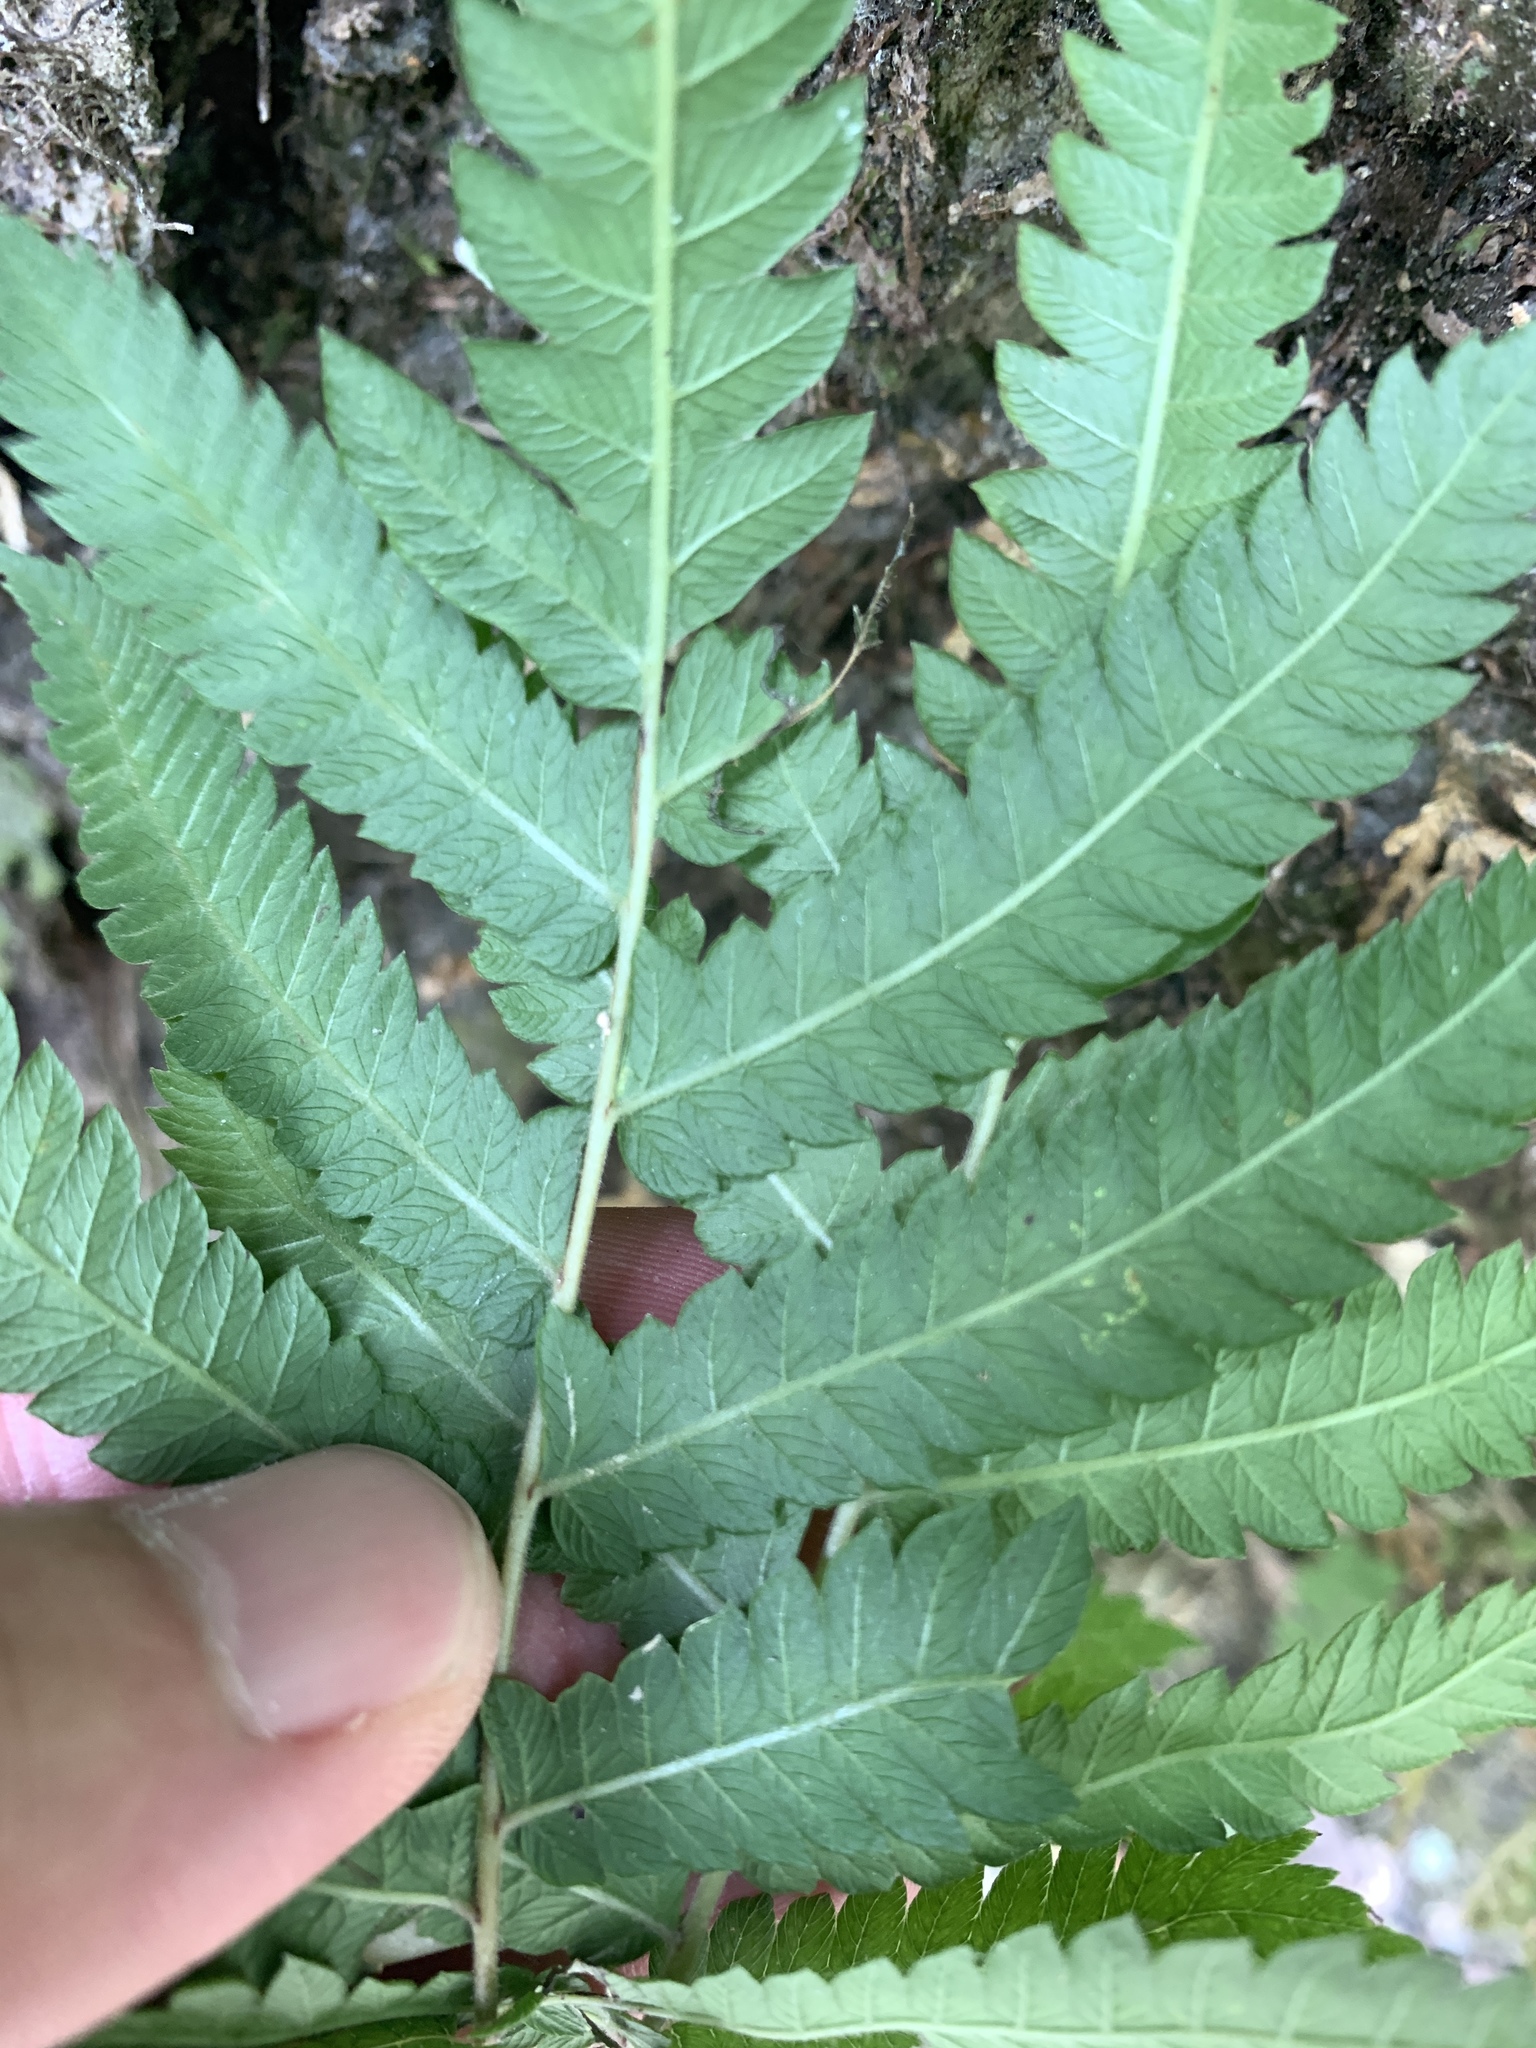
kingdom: Plantae
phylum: Tracheophyta
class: Polypodiopsida
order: Polypodiales
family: Thelypteridaceae
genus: Christella
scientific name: Christella acuminata
